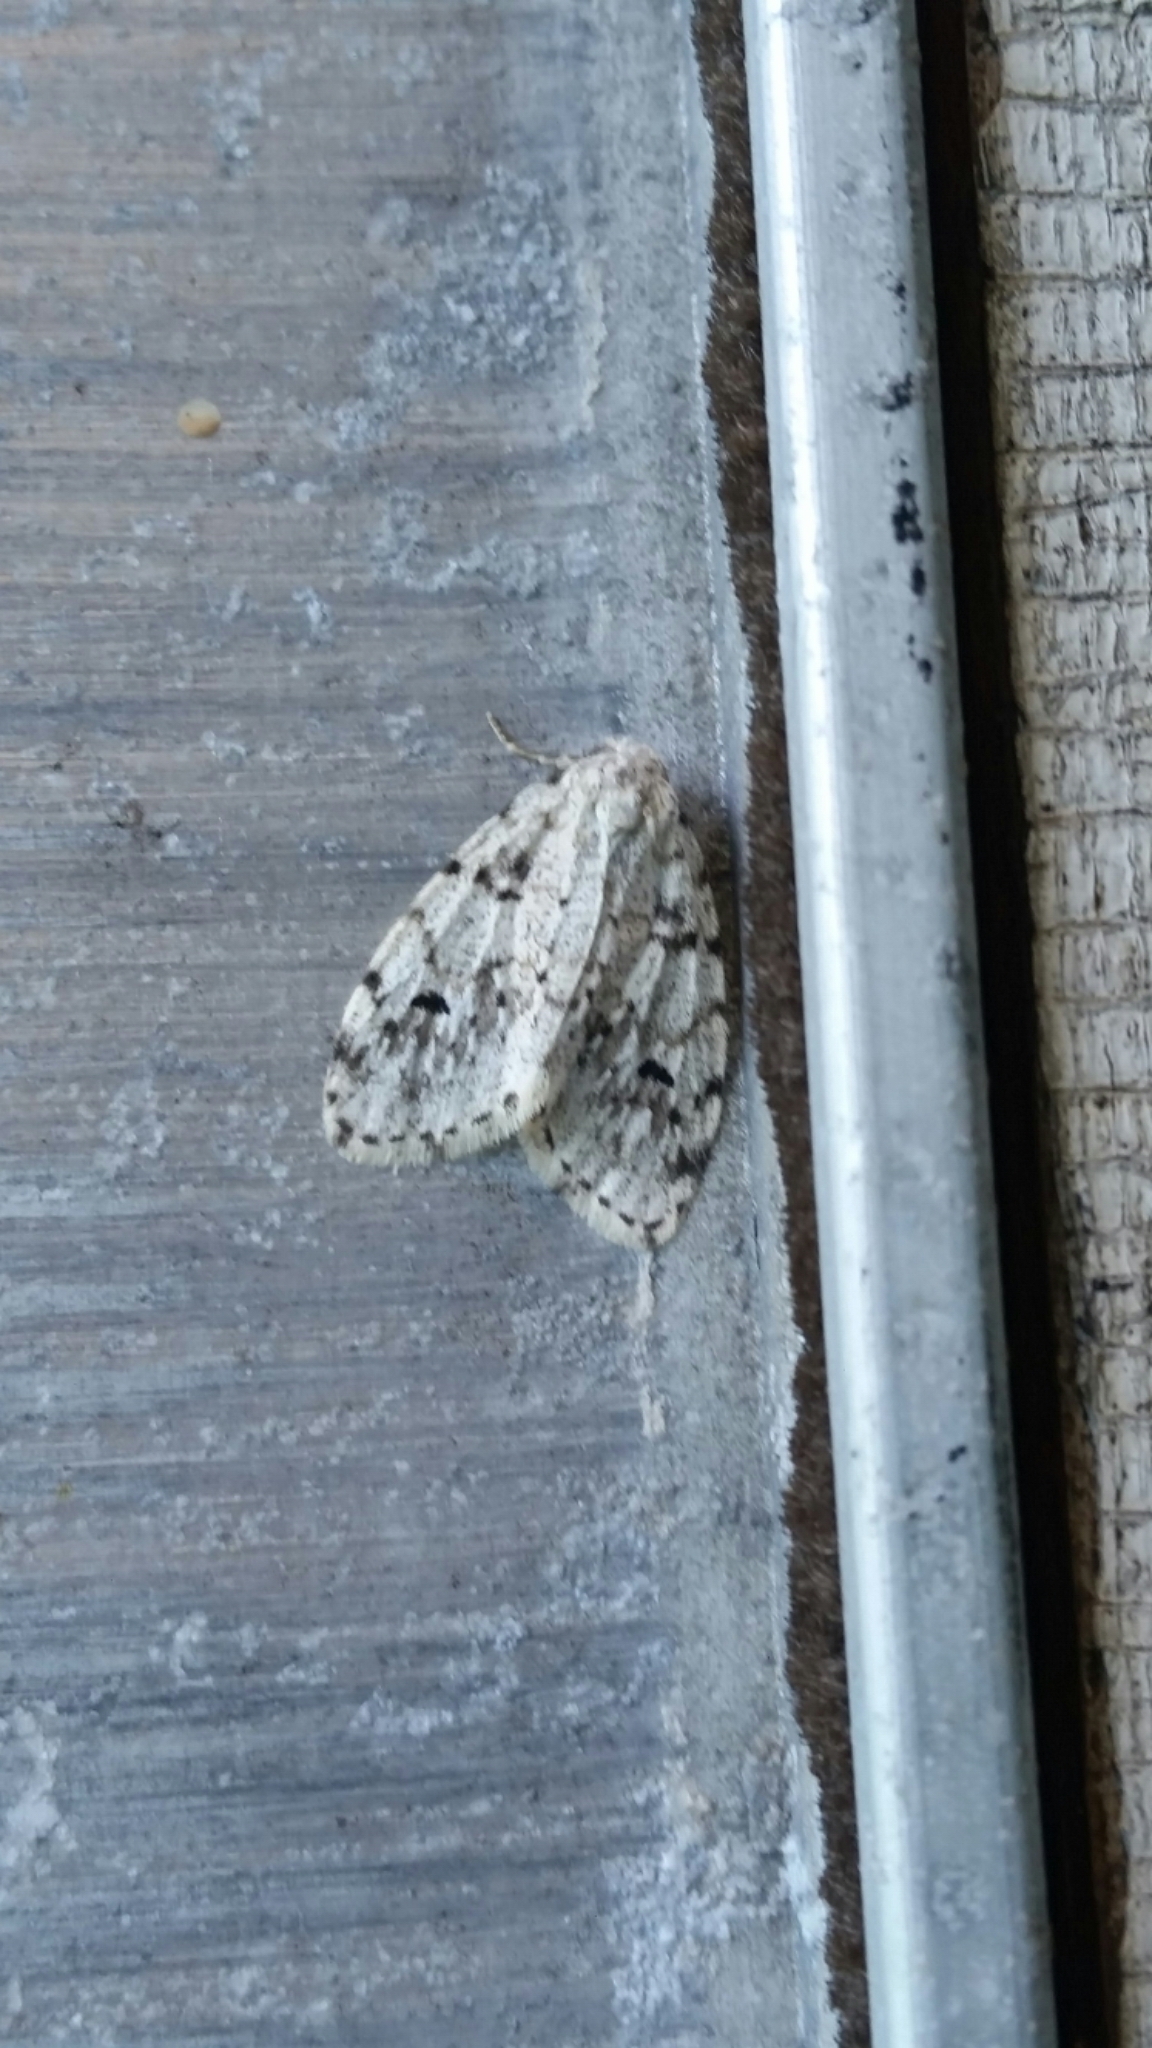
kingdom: Animalia
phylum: Arthropoda
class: Insecta
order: Lepidoptera
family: Erebidae
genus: Clemensia
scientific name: Clemensia albata
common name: Little white lichen moth
